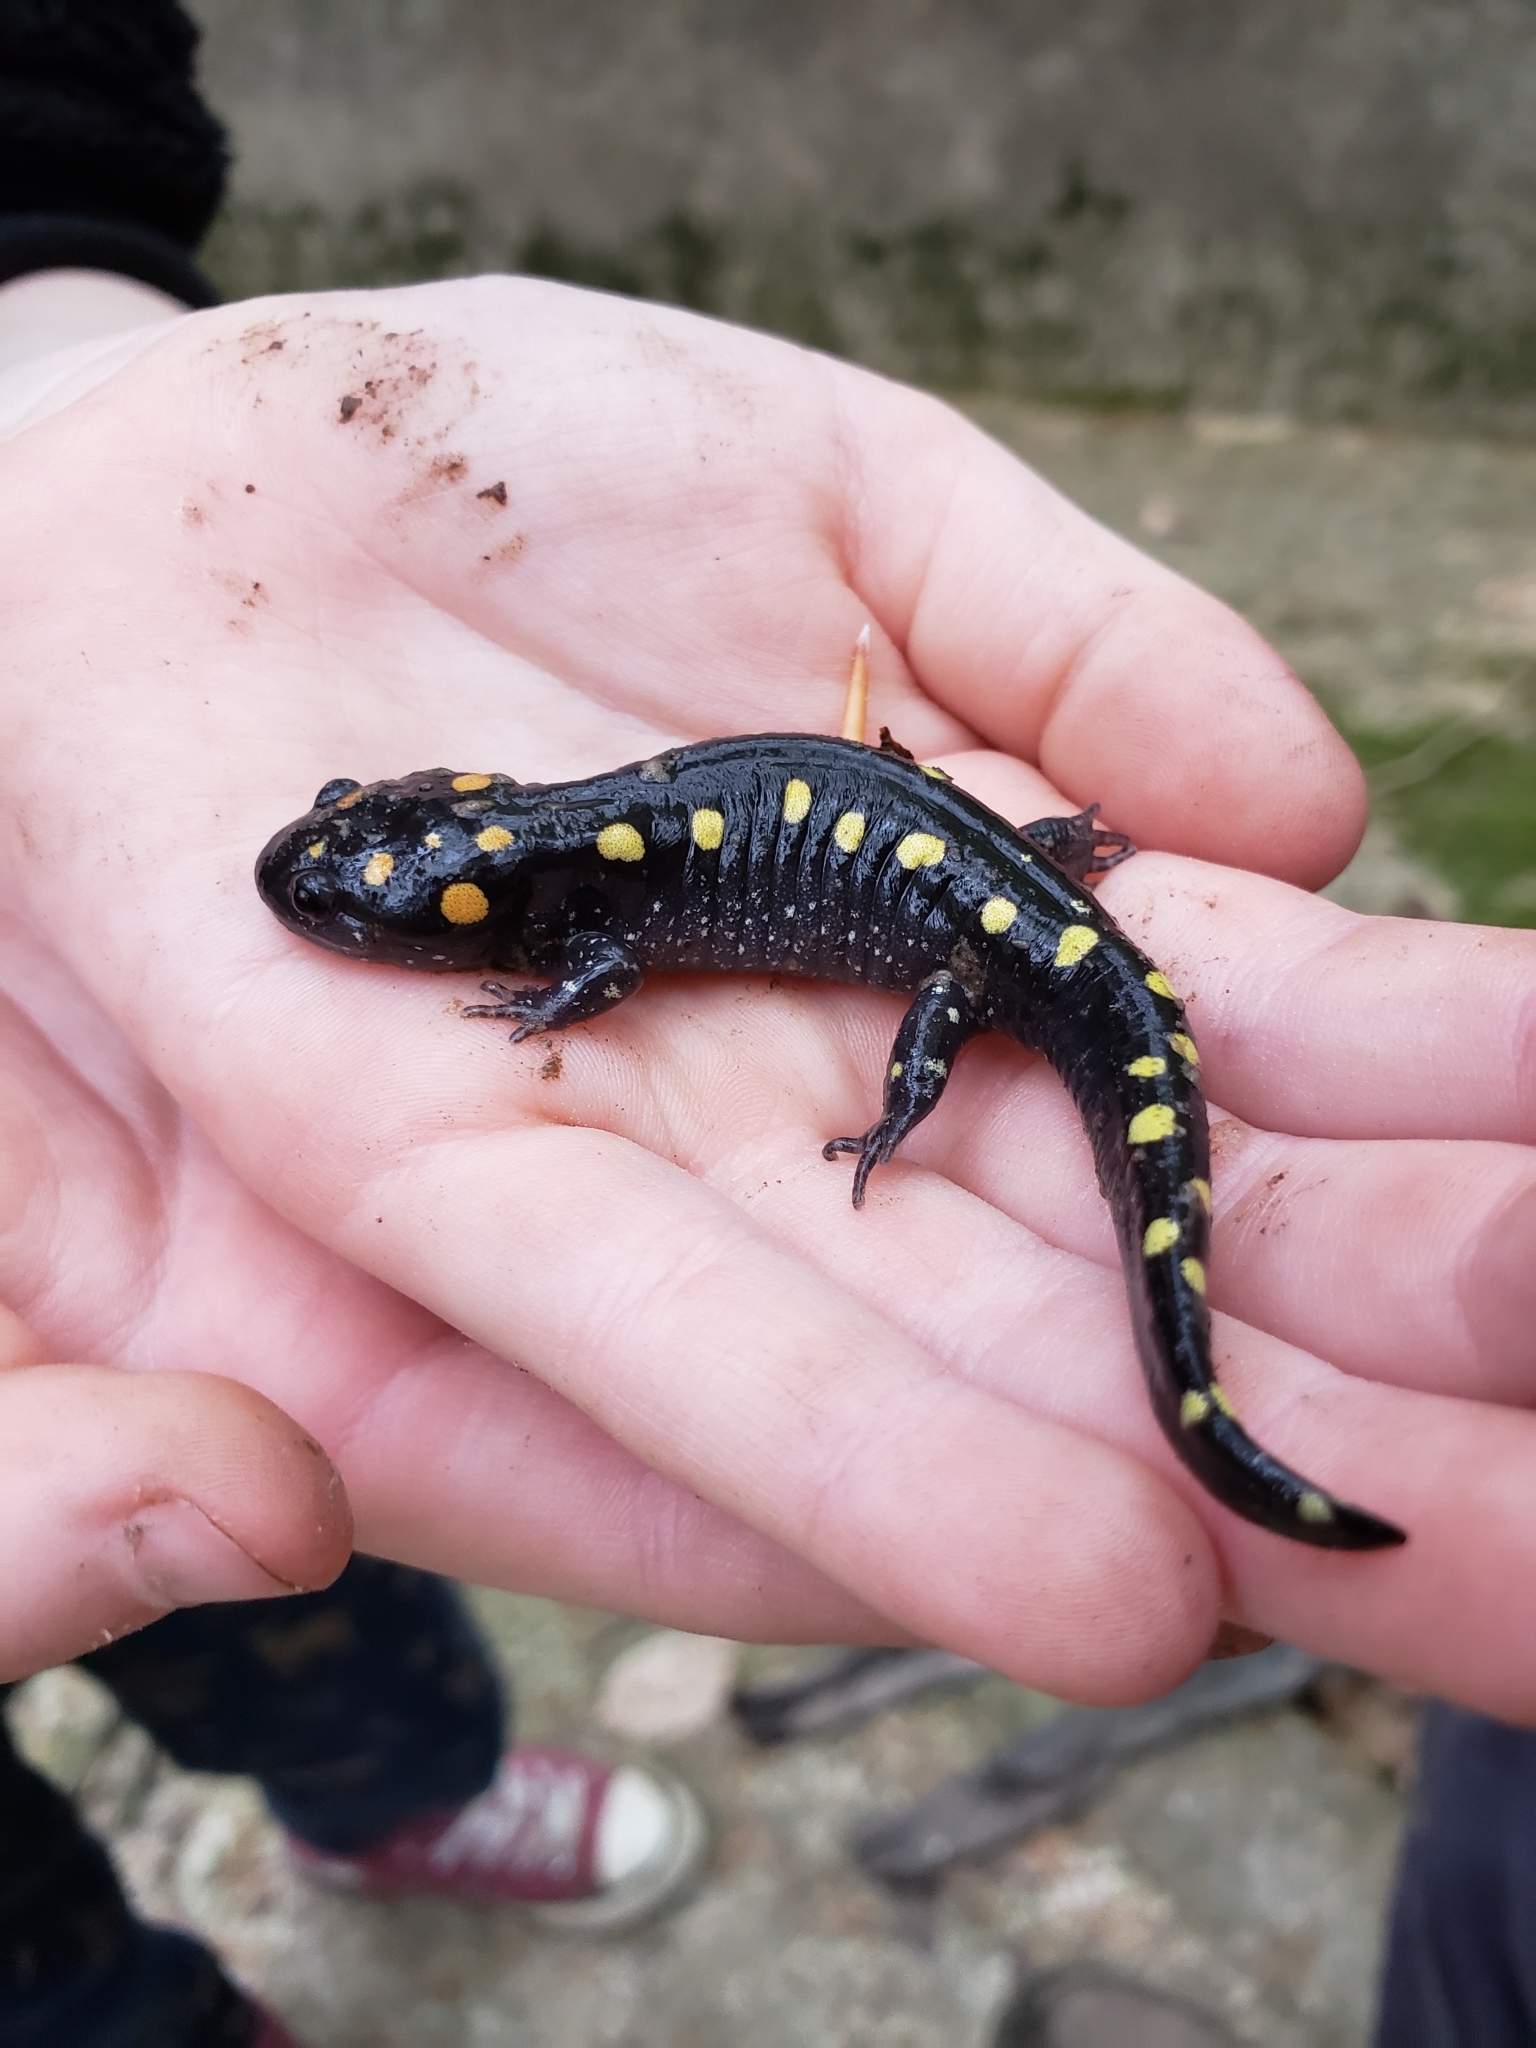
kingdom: Animalia
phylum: Chordata
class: Amphibia
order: Caudata
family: Ambystomatidae
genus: Ambystoma
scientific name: Ambystoma maculatum
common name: Spotted salamander
